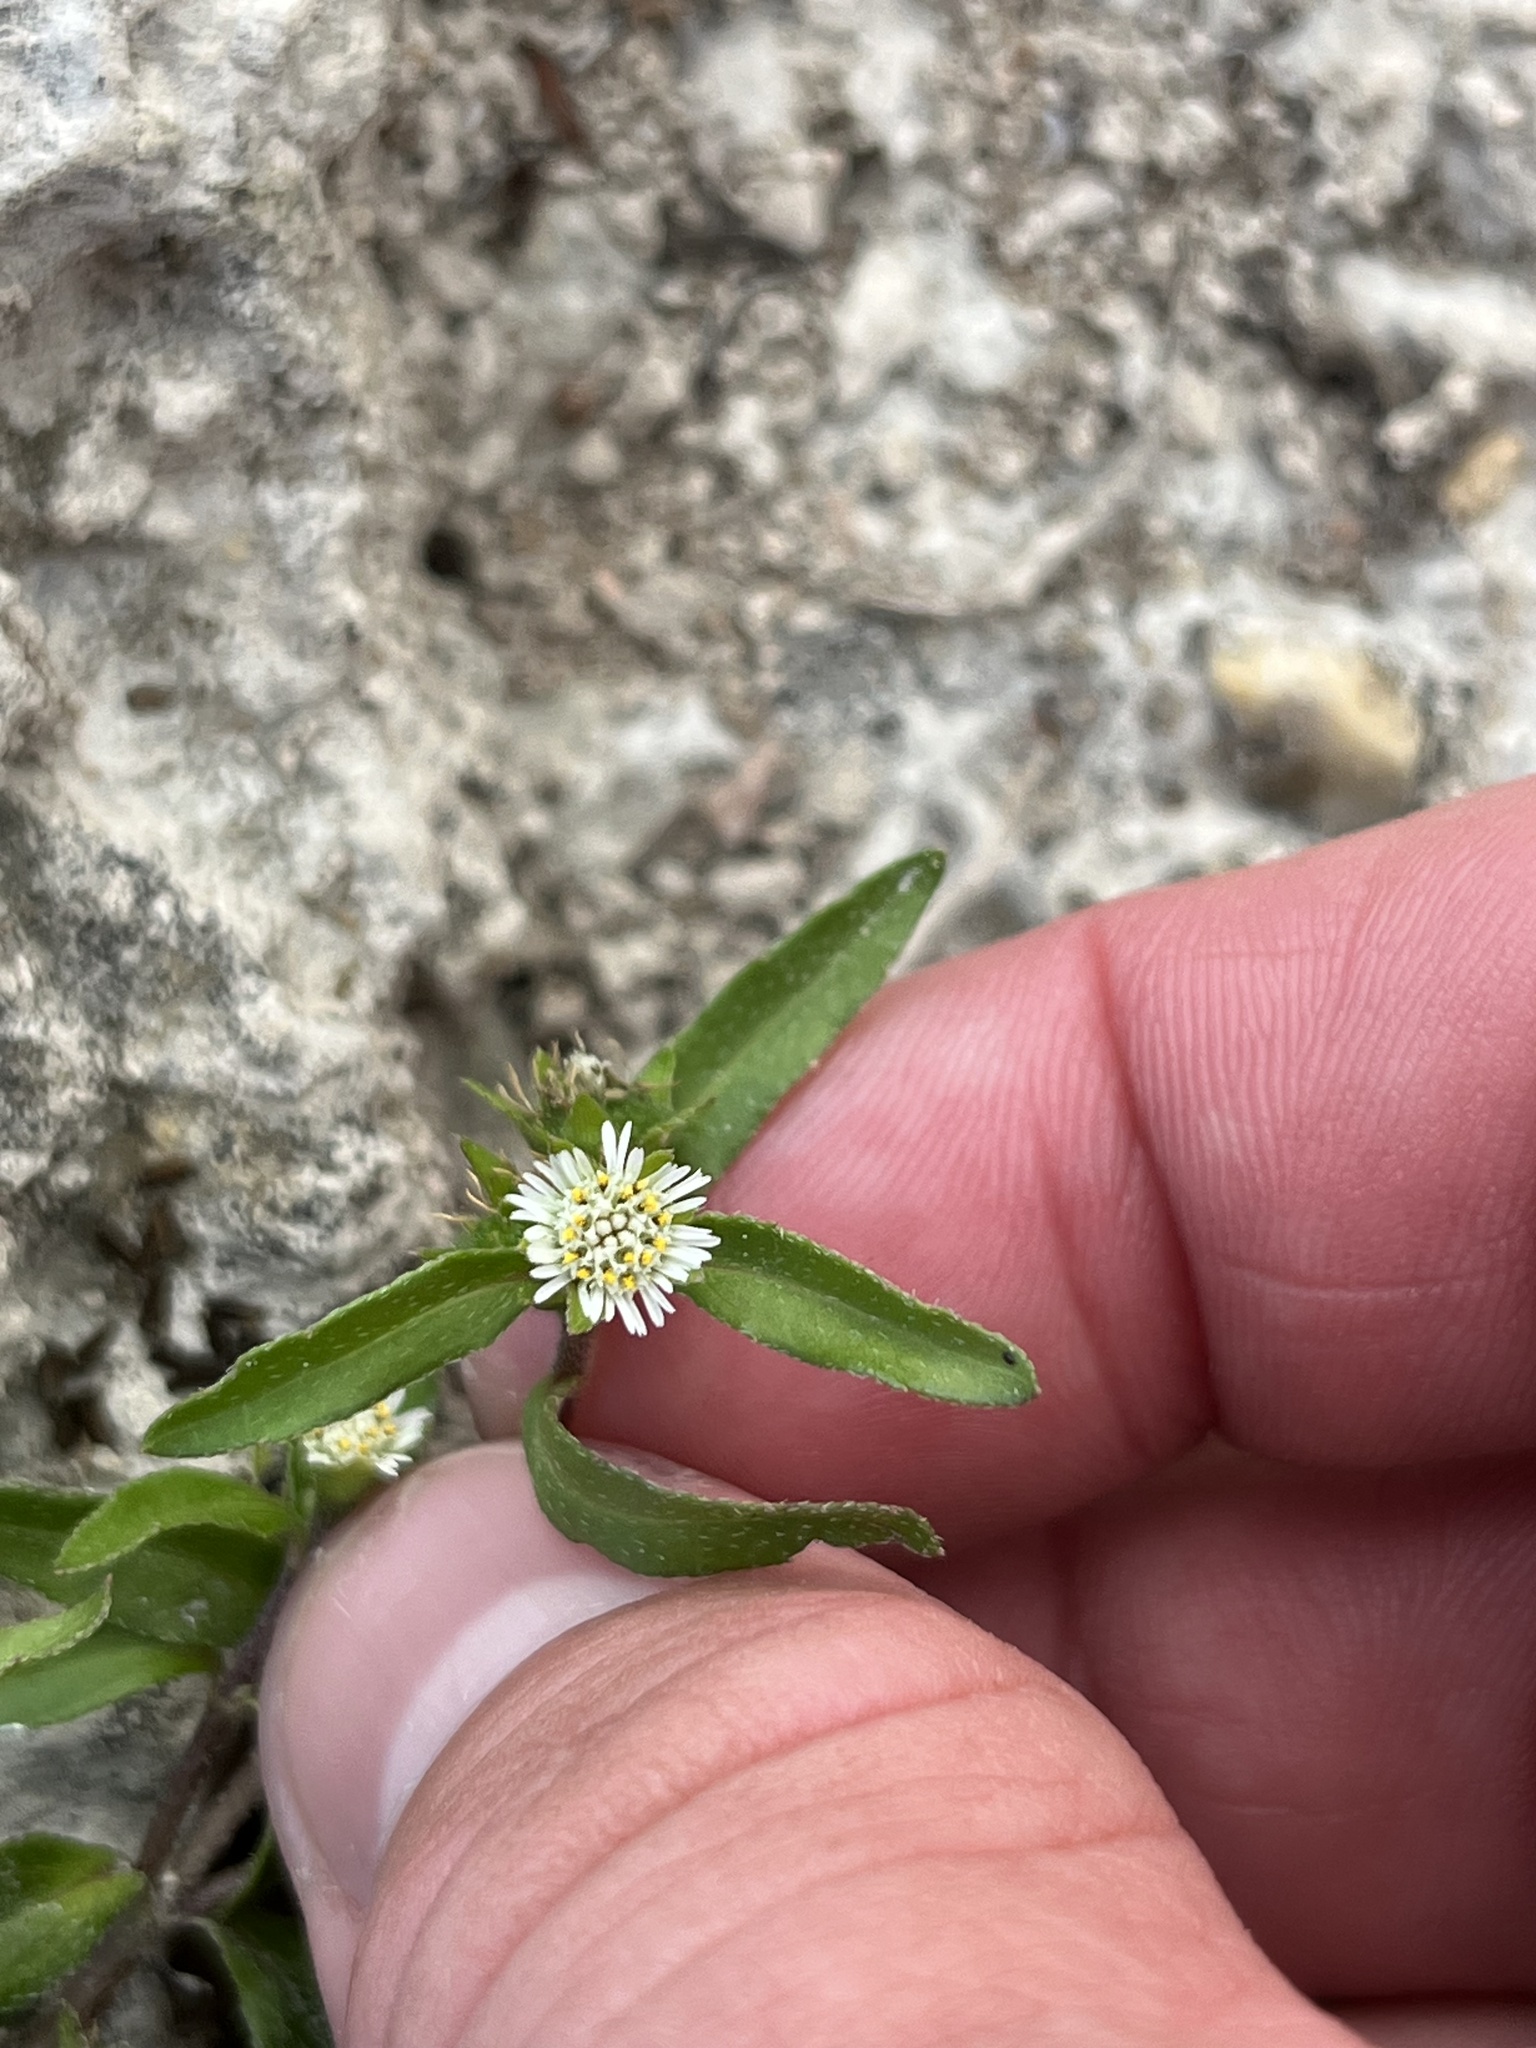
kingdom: Plantae
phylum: Tracheophyta
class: Magnoliopsida
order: Asterales
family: Asteraceae
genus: Eclipta
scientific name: Eclipta prostrata
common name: False daisy
